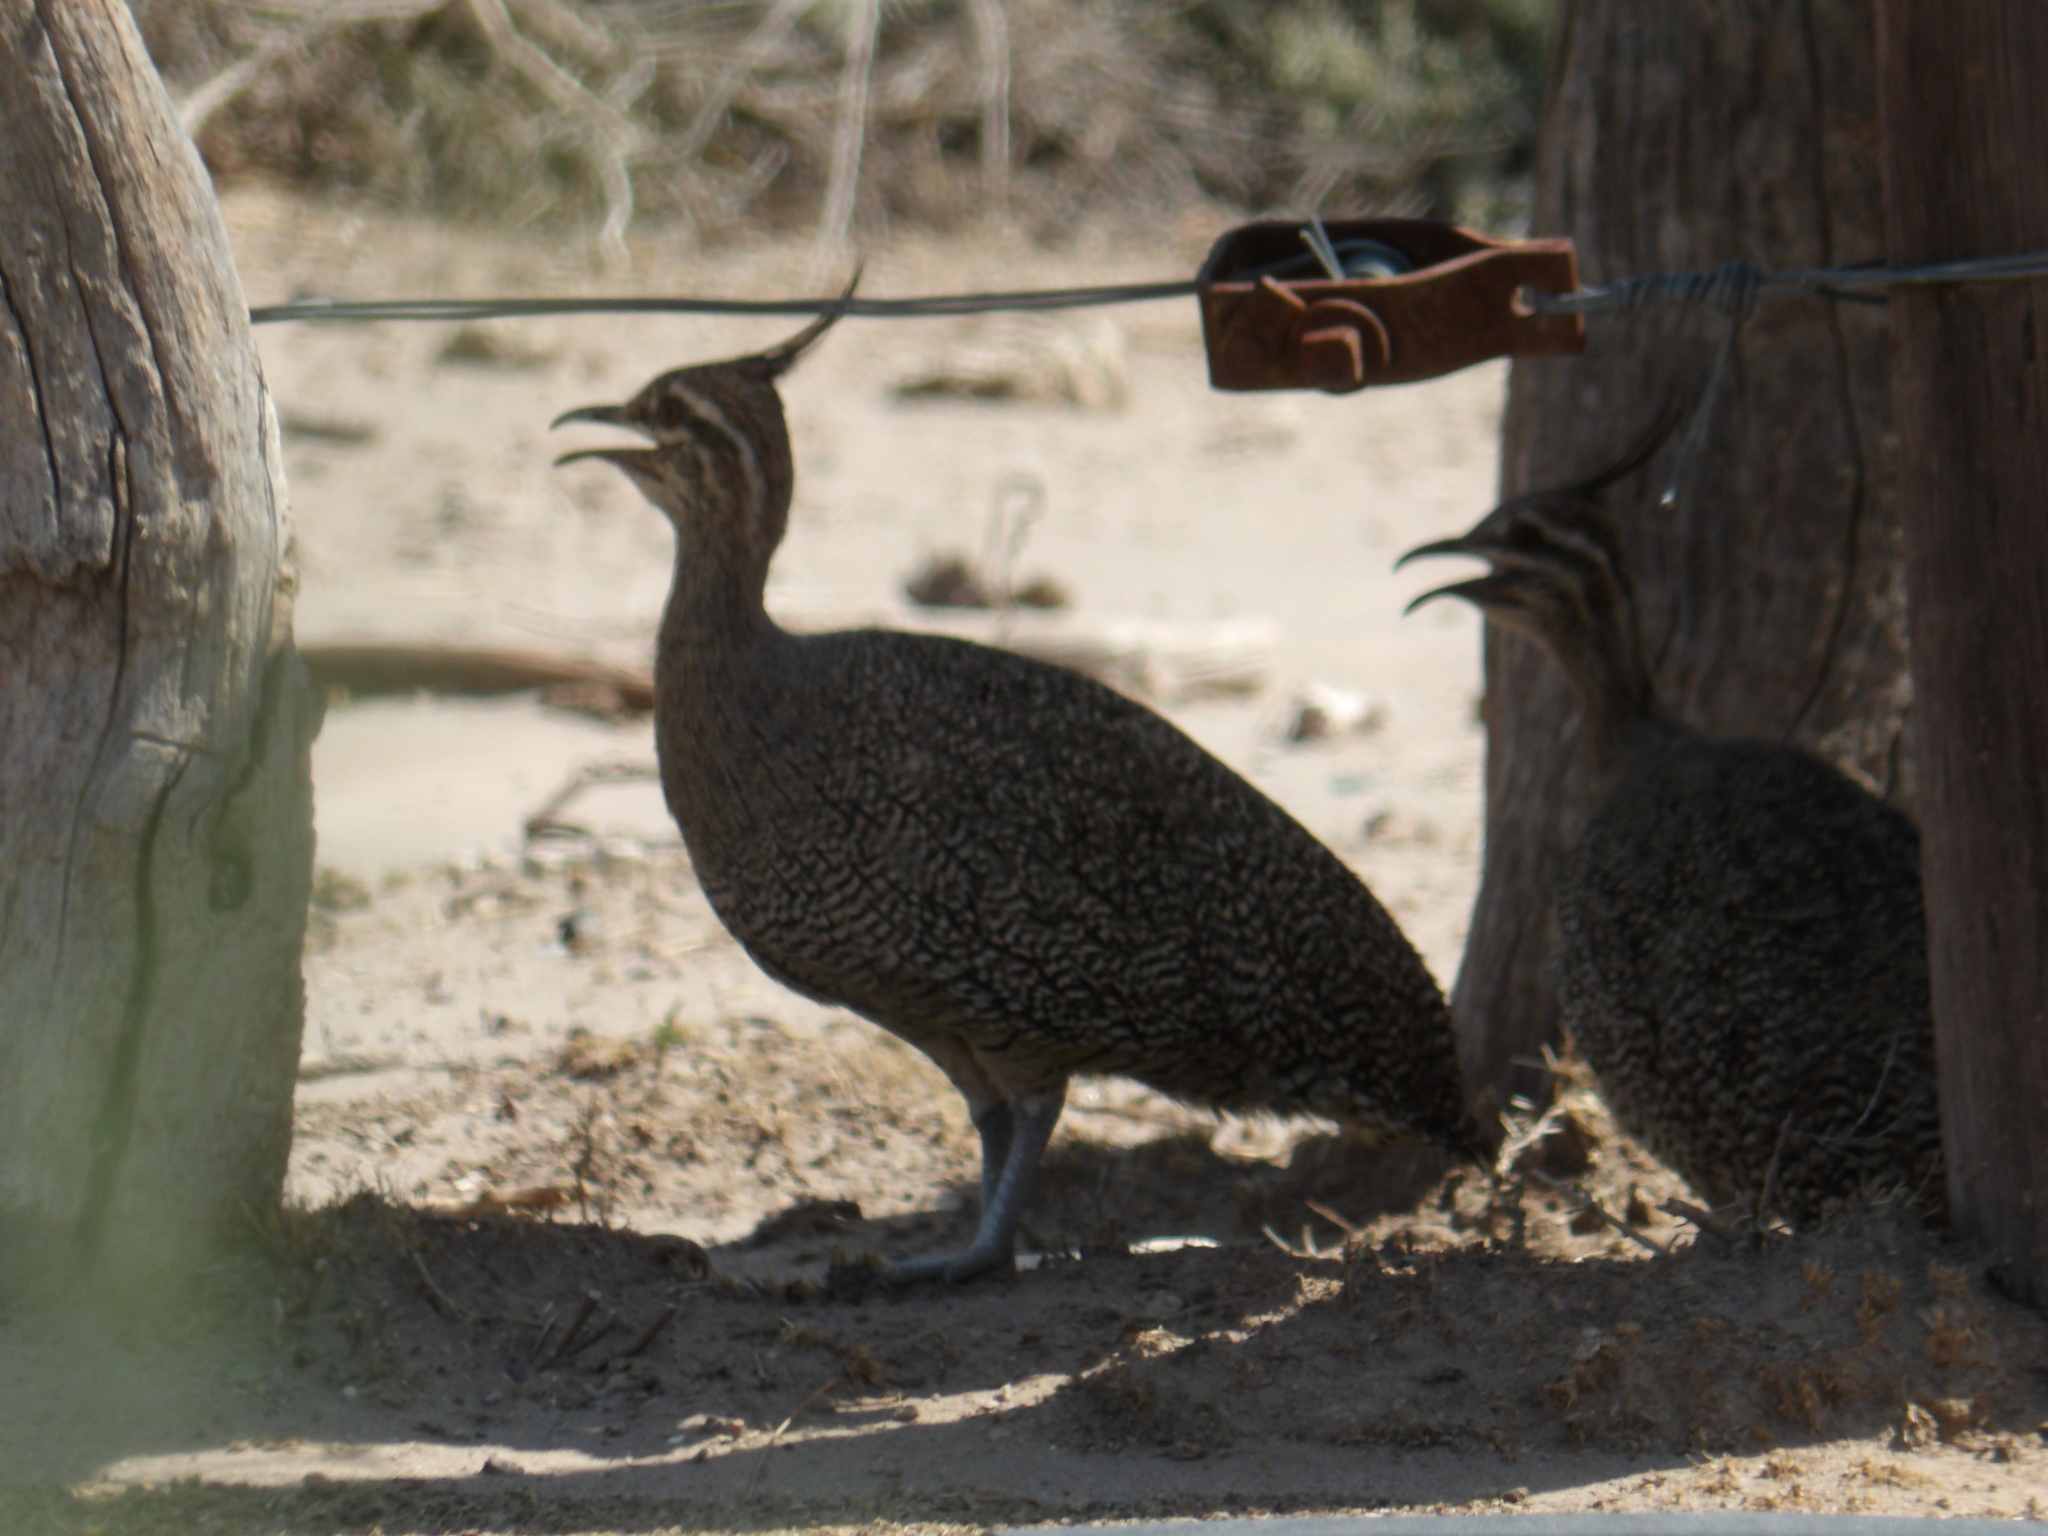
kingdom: Animalia
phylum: Chordata
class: Aves
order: Tinamiformes
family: Tinamidae
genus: Eudromia
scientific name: Eudromia elegans
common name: Elegant crested tinamou
